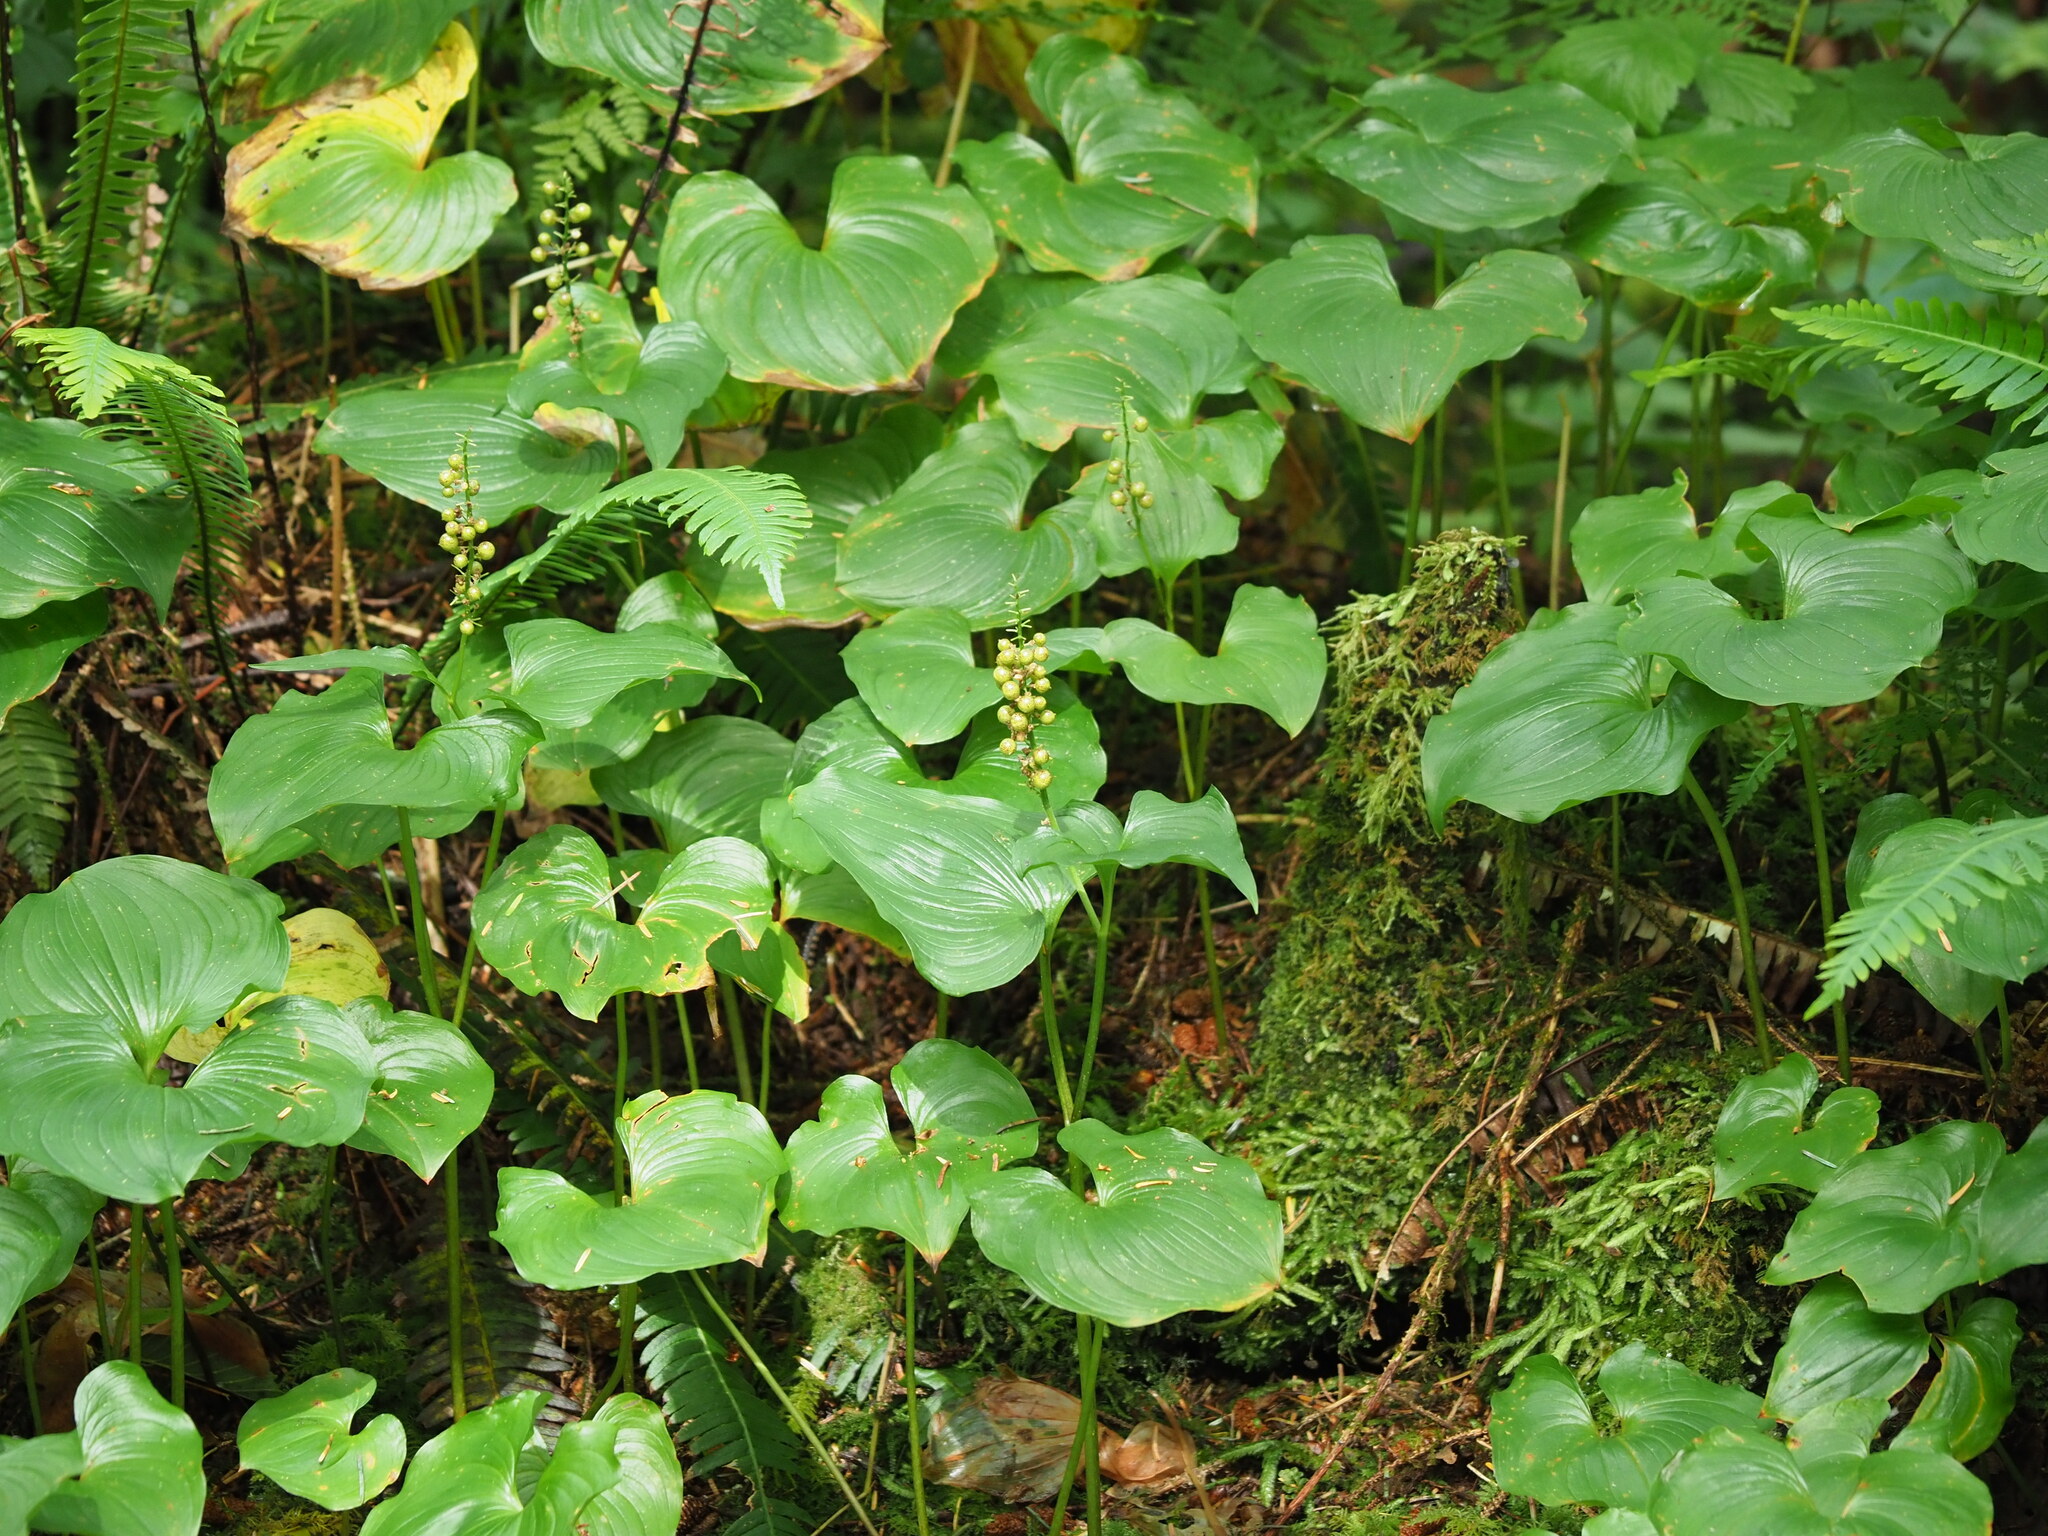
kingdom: Plantae
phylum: Tracheophyta
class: Liliopsida
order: Asparagales
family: Asparagaceae
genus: Maianthemum
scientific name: Maianthemum dilatatum
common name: False lily-of-the-valley
